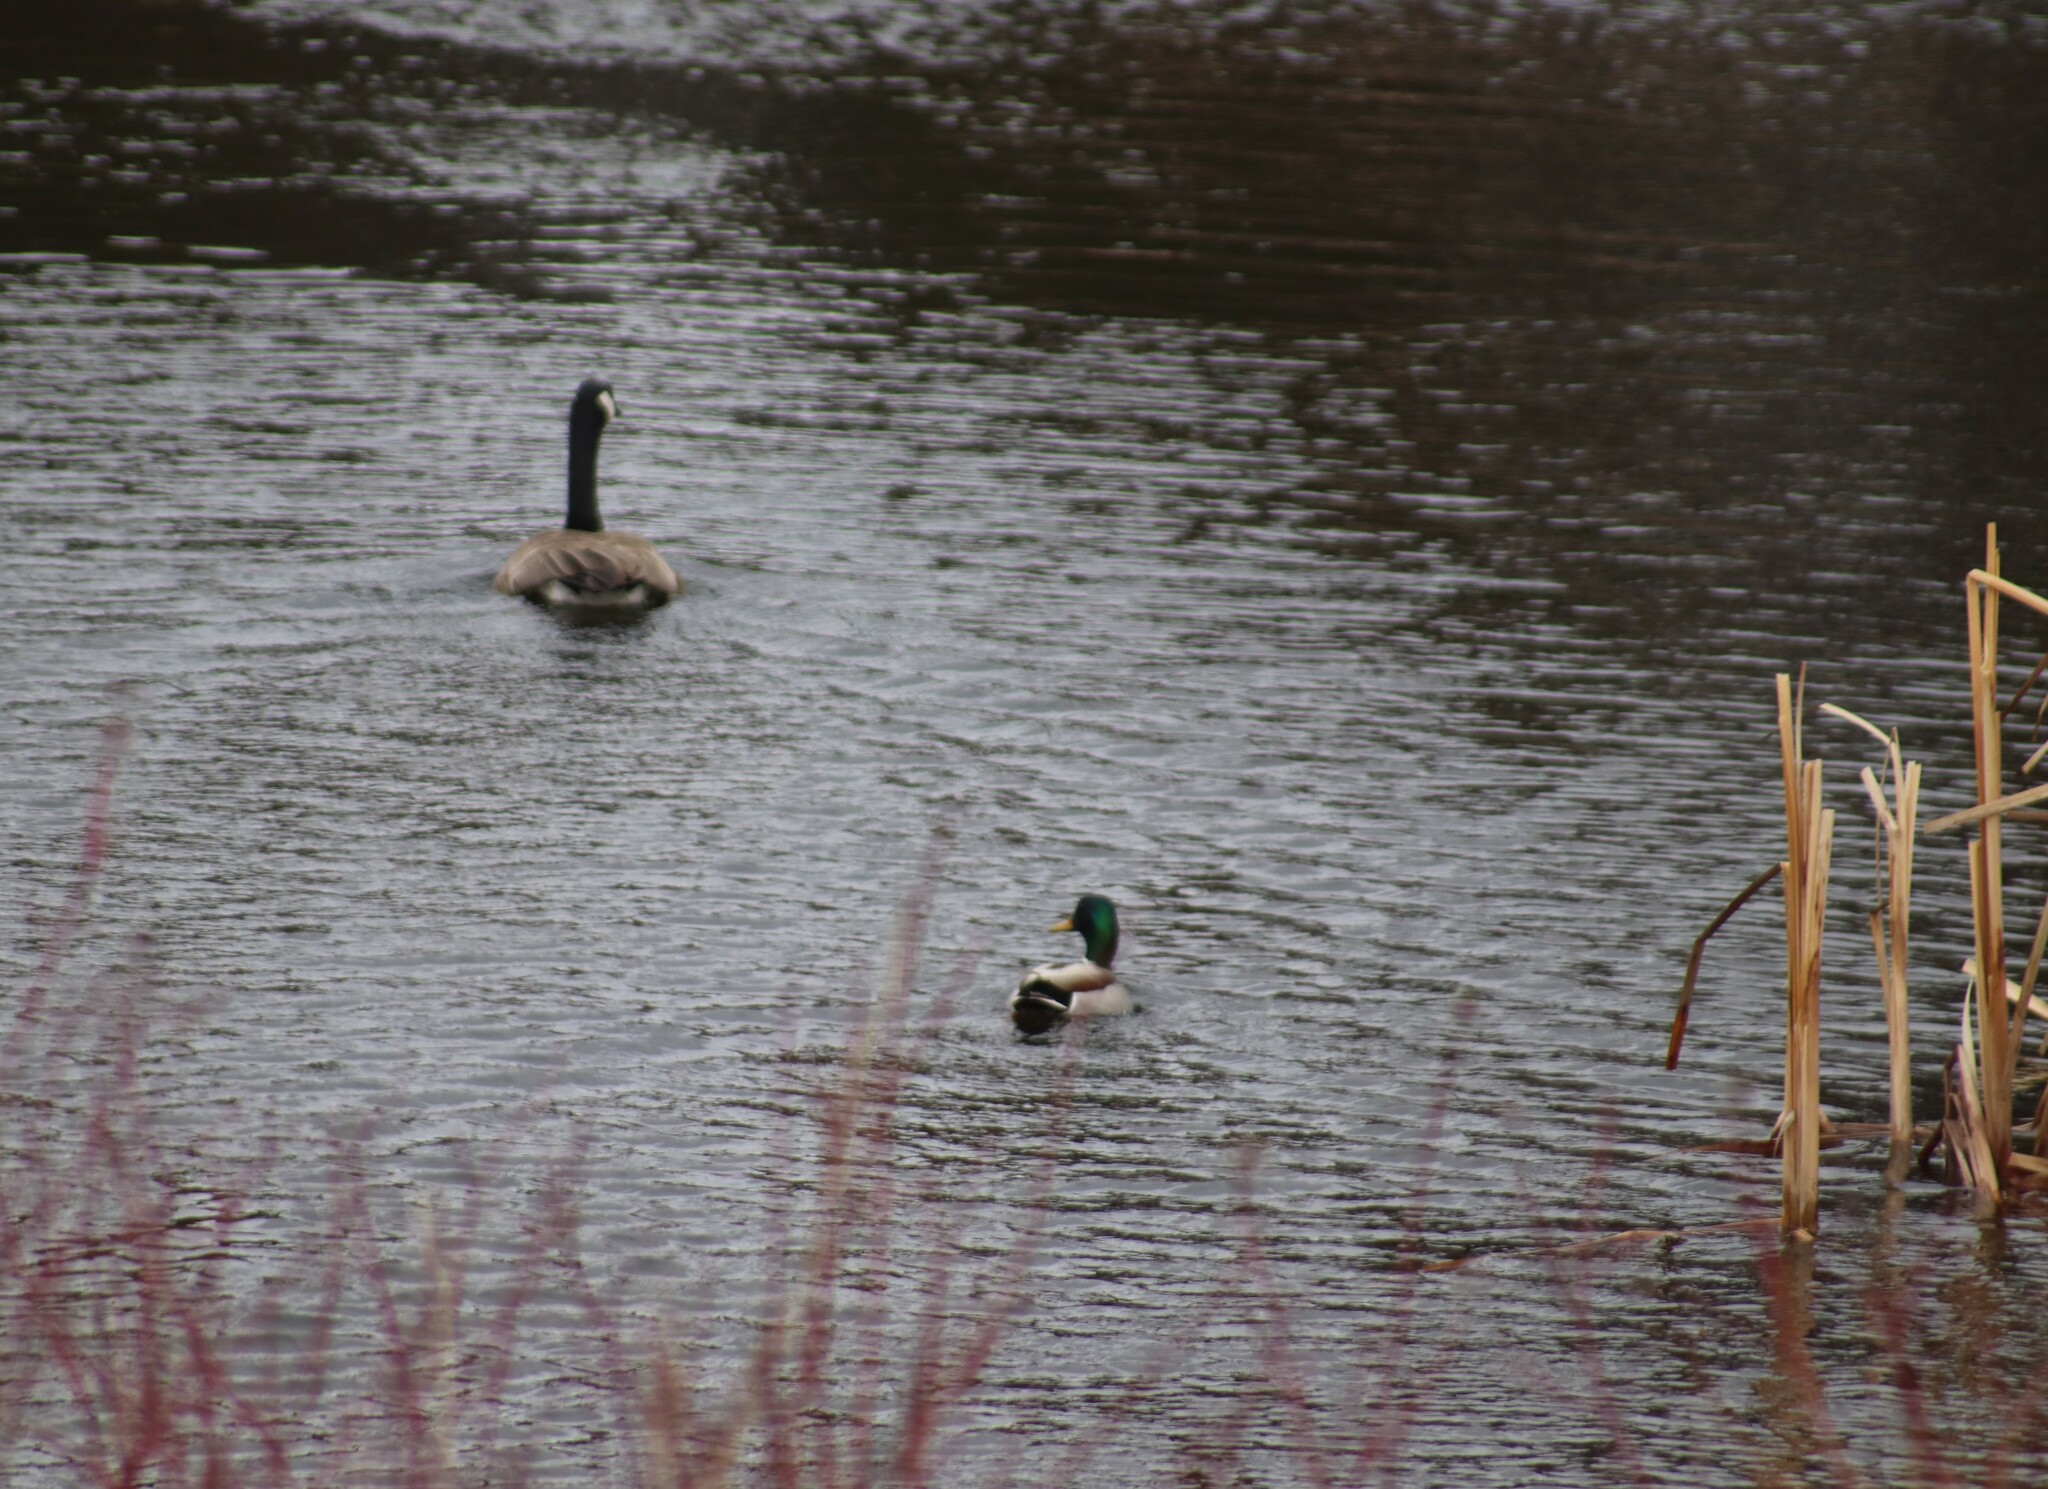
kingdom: Animalia
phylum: Chordata
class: Aves
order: Anseriformes
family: Anatidae
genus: Anas
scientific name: Anas platyrhynchos
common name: Mallard
